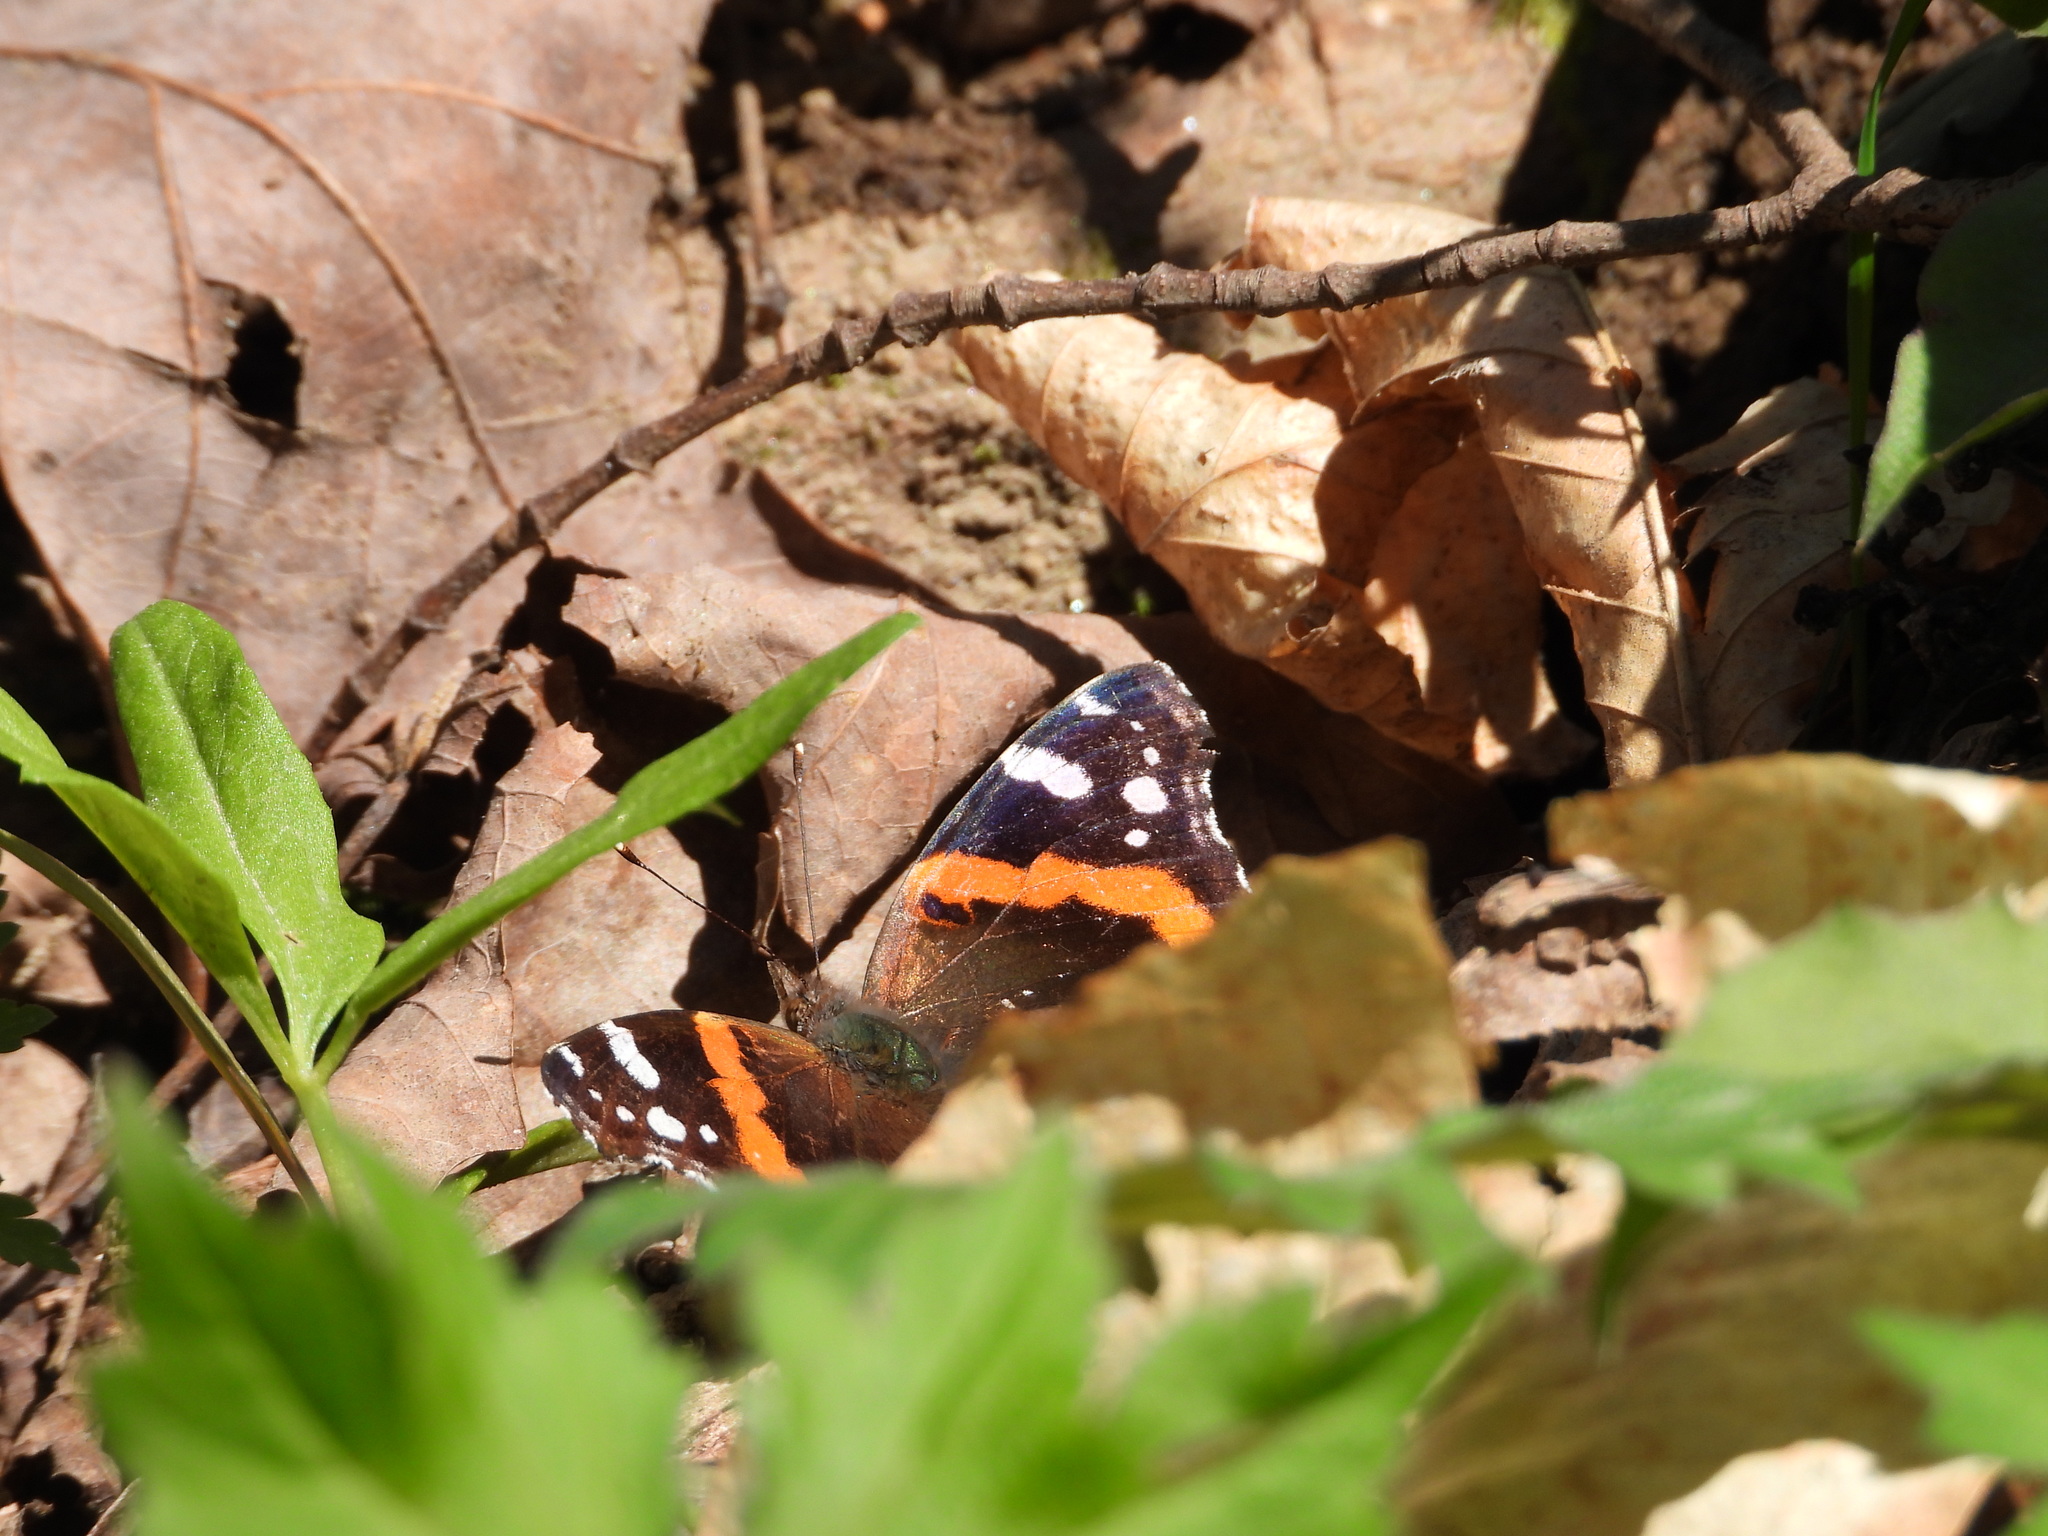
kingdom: Animalia
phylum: Arthropoda
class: Insecta
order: Lepidoptera
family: Nymphalidae
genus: Vanessa
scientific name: Vanessa atalanta
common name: Red admiral
